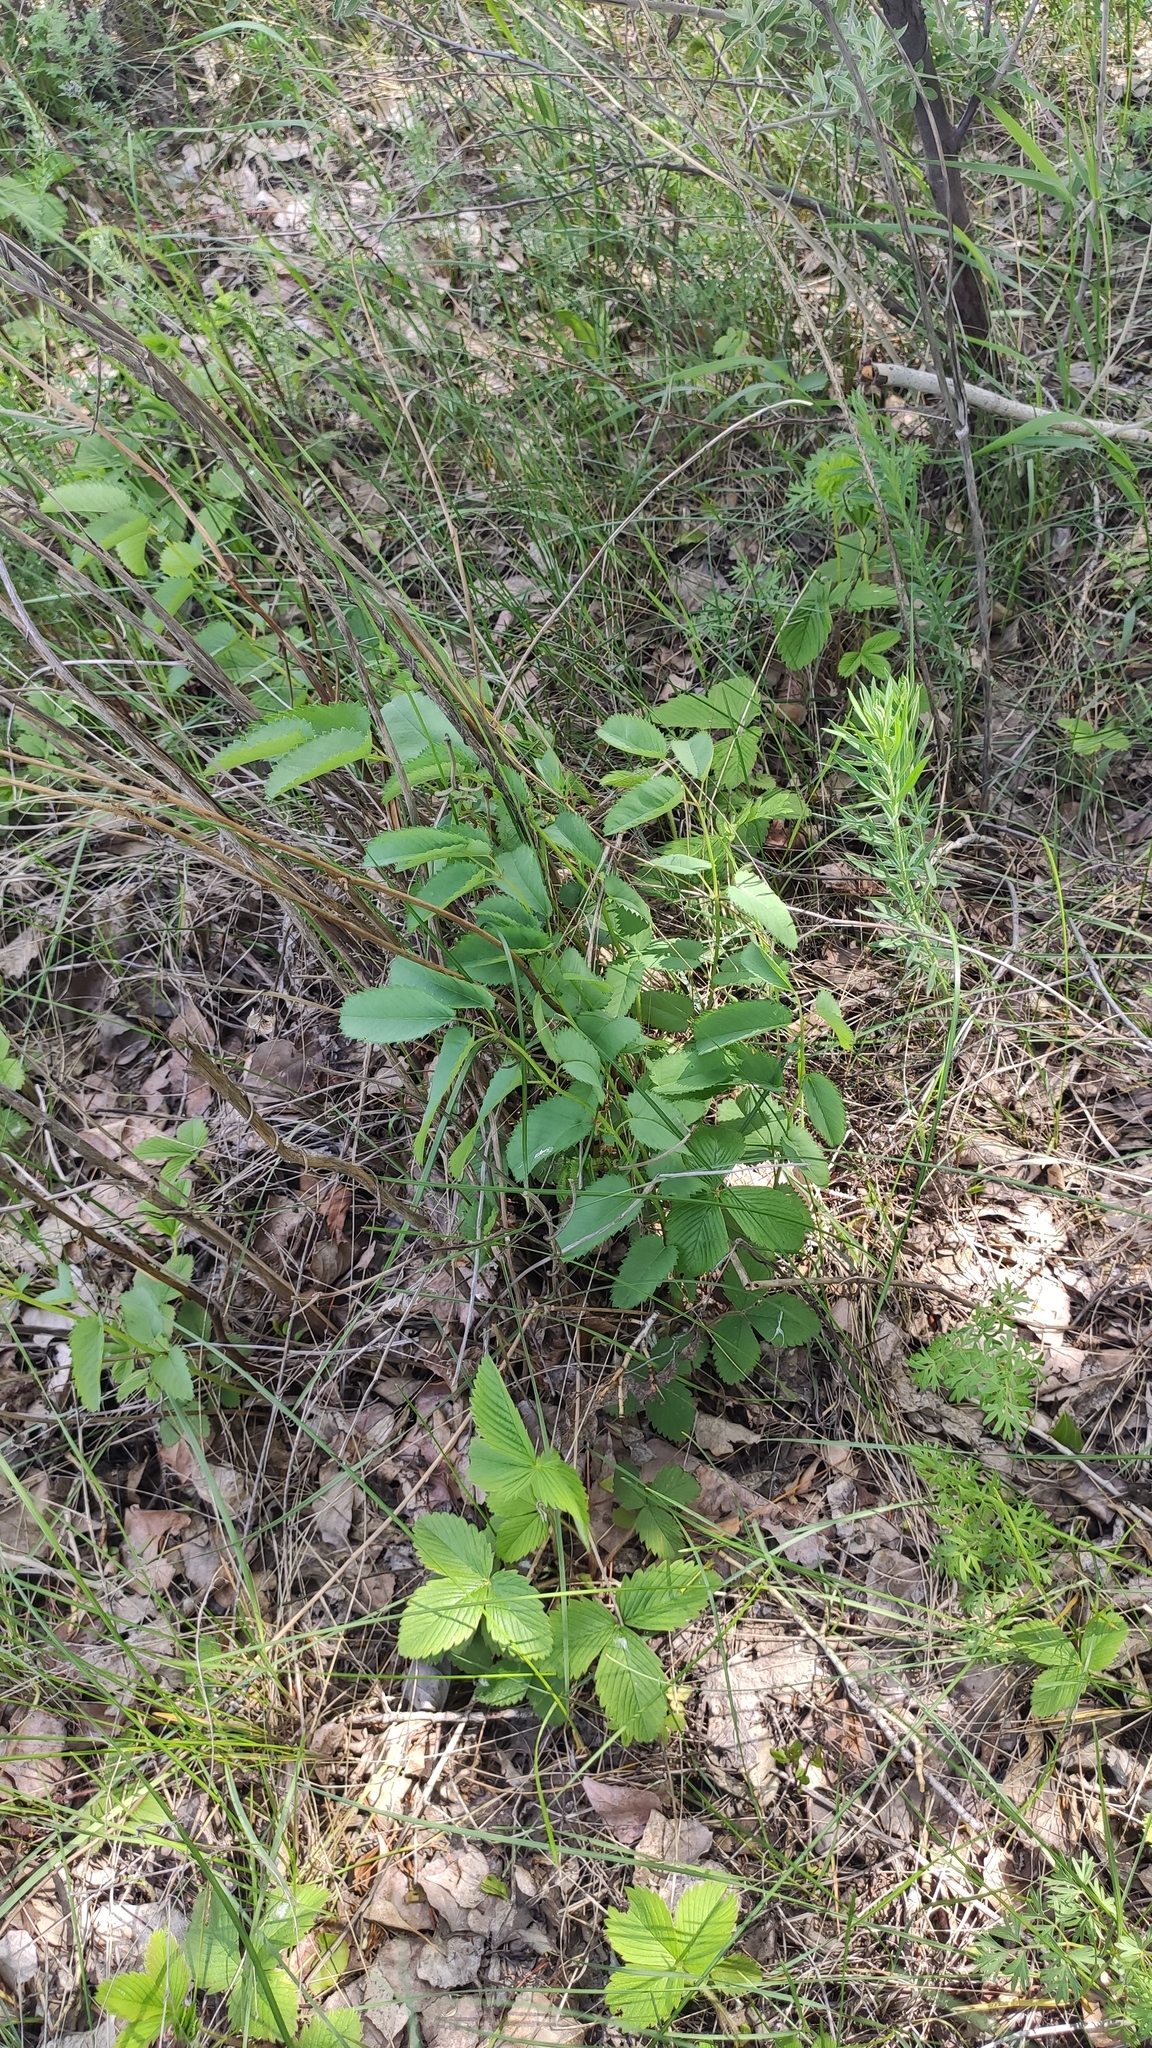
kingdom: Plantae
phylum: Tracheophyta
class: Magnoliopsida
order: Rosales
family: Rosaceae
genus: Sanguisorba
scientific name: Sanguisorba officinalis
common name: Great burnet
